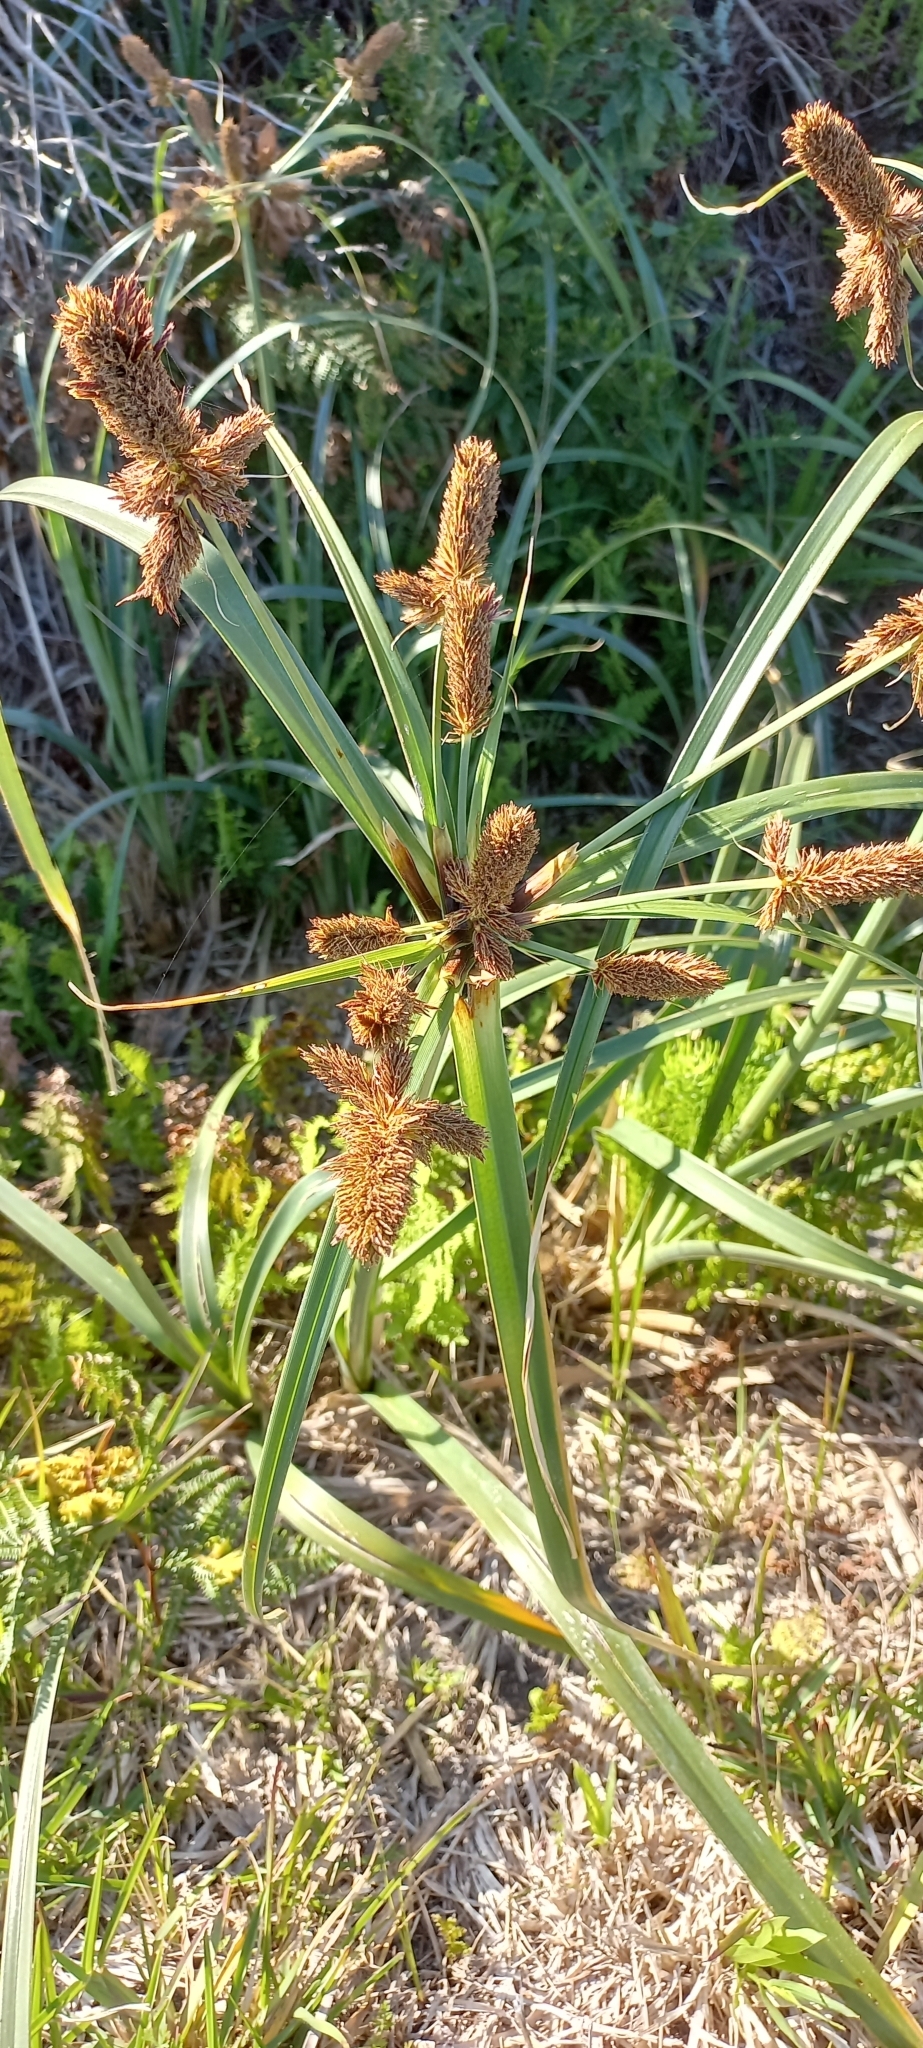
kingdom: Plantae
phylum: Tracheophyta
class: Liliopsida
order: Poales
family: Cyperaceae
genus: Cyperus
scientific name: Cyperus thunbergii
